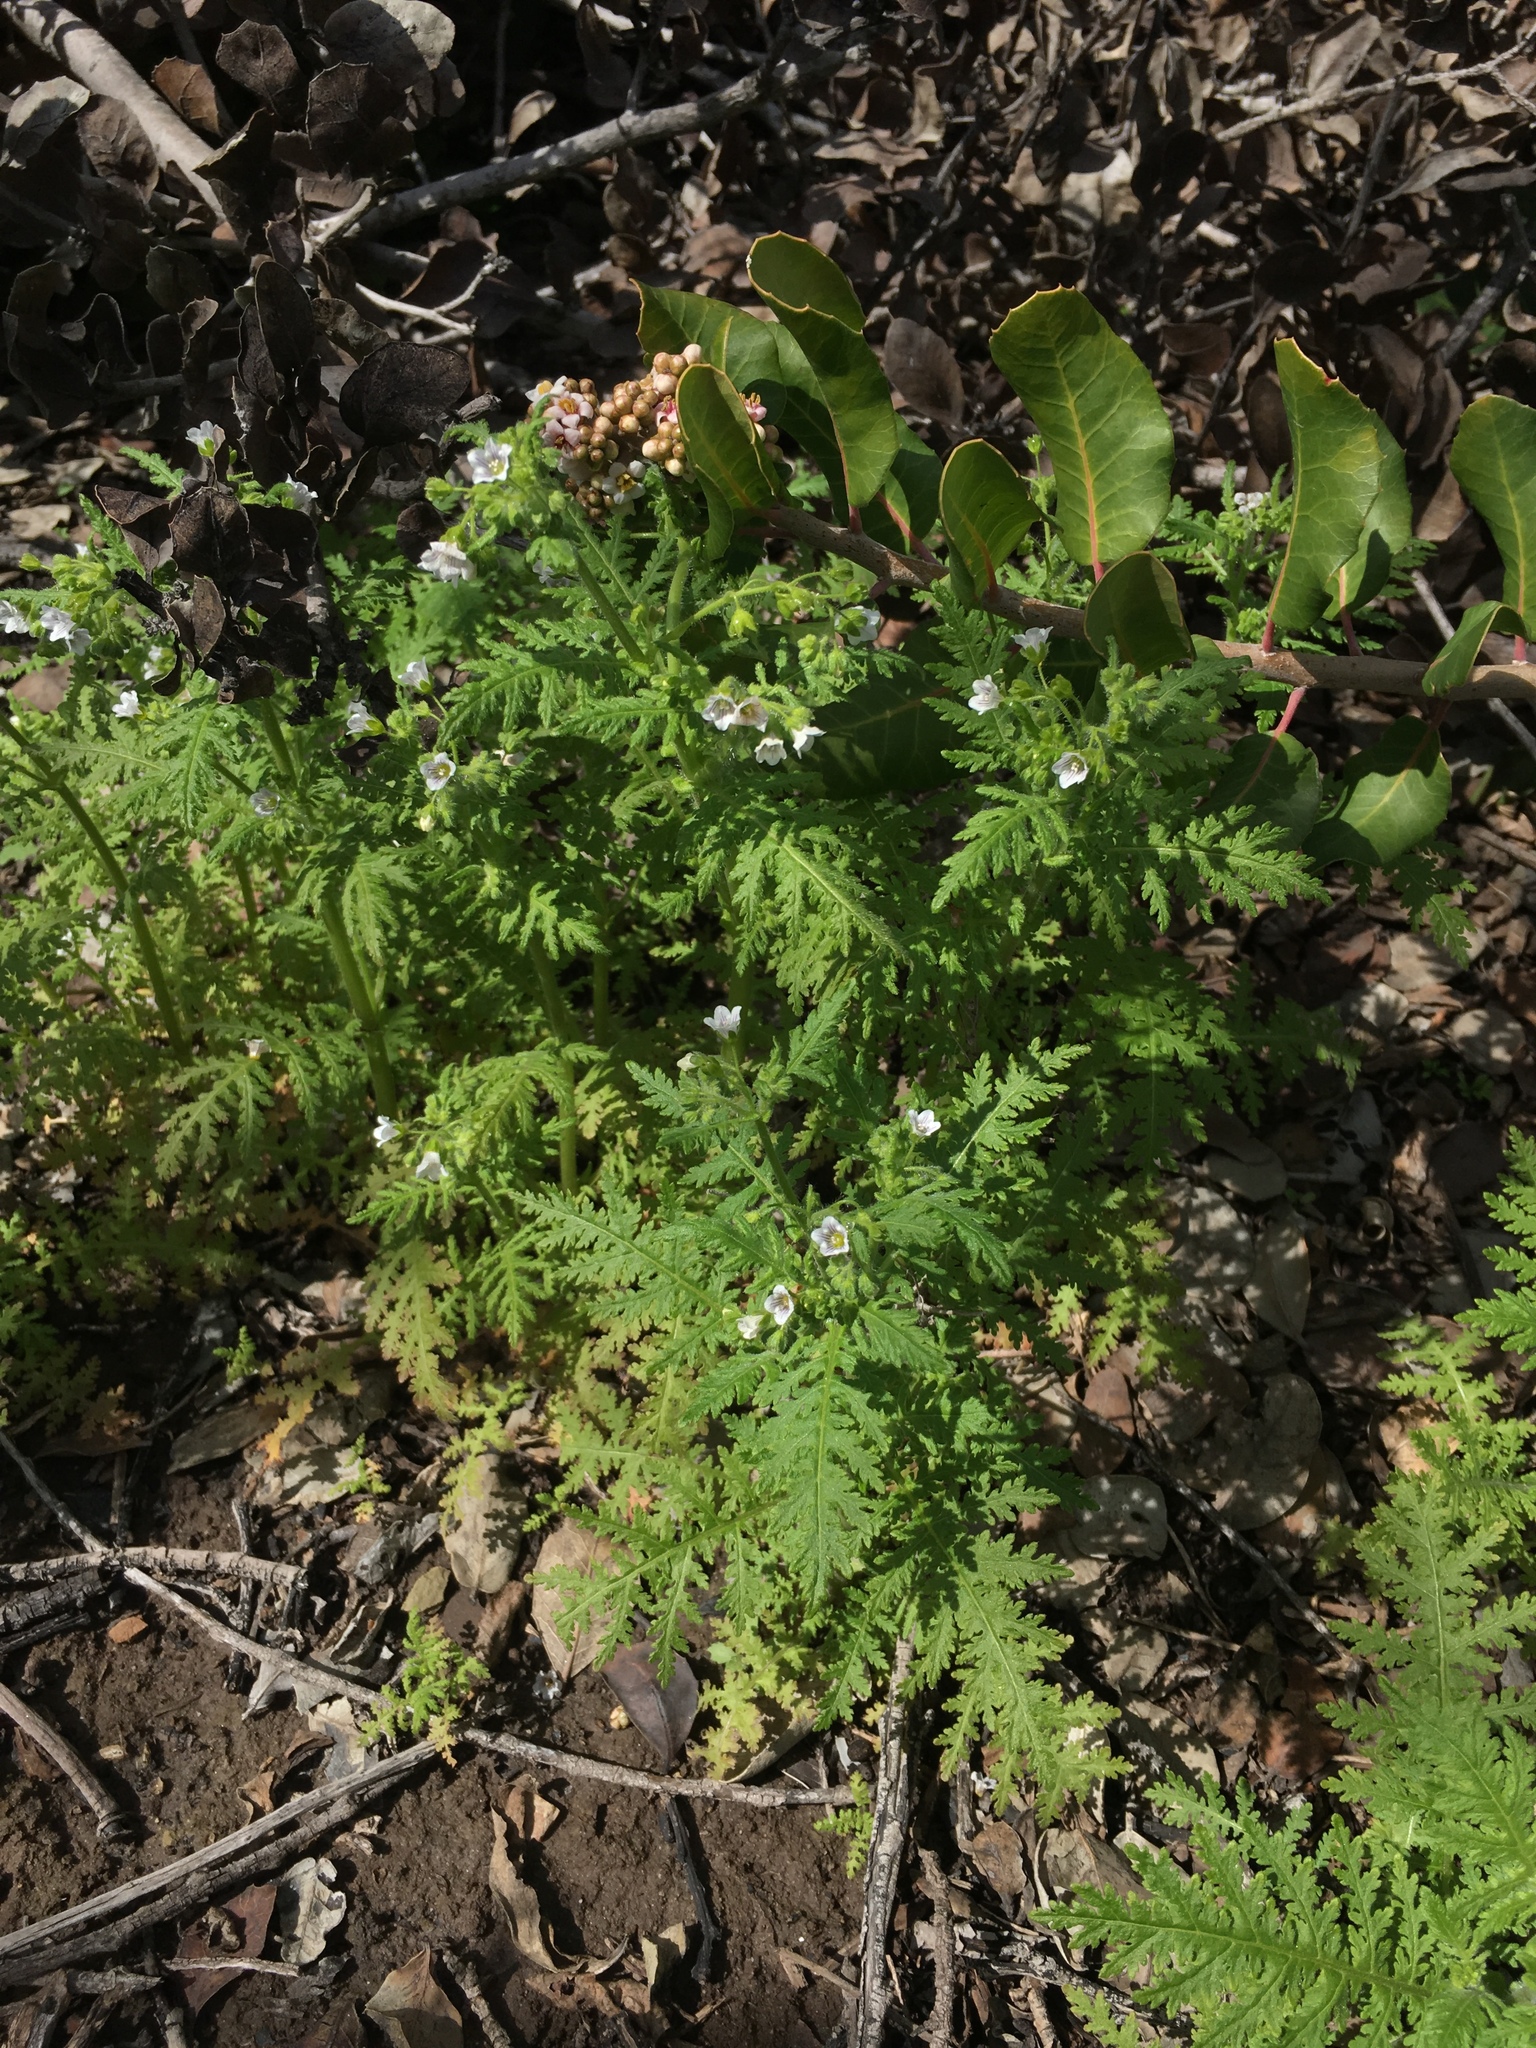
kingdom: Plantae
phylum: Tracheophyta
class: Magnoliopsida
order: Boraginales
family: Hydrophyllaceae
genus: Eucrypta
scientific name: Eucrypta chrysanthemifolia
